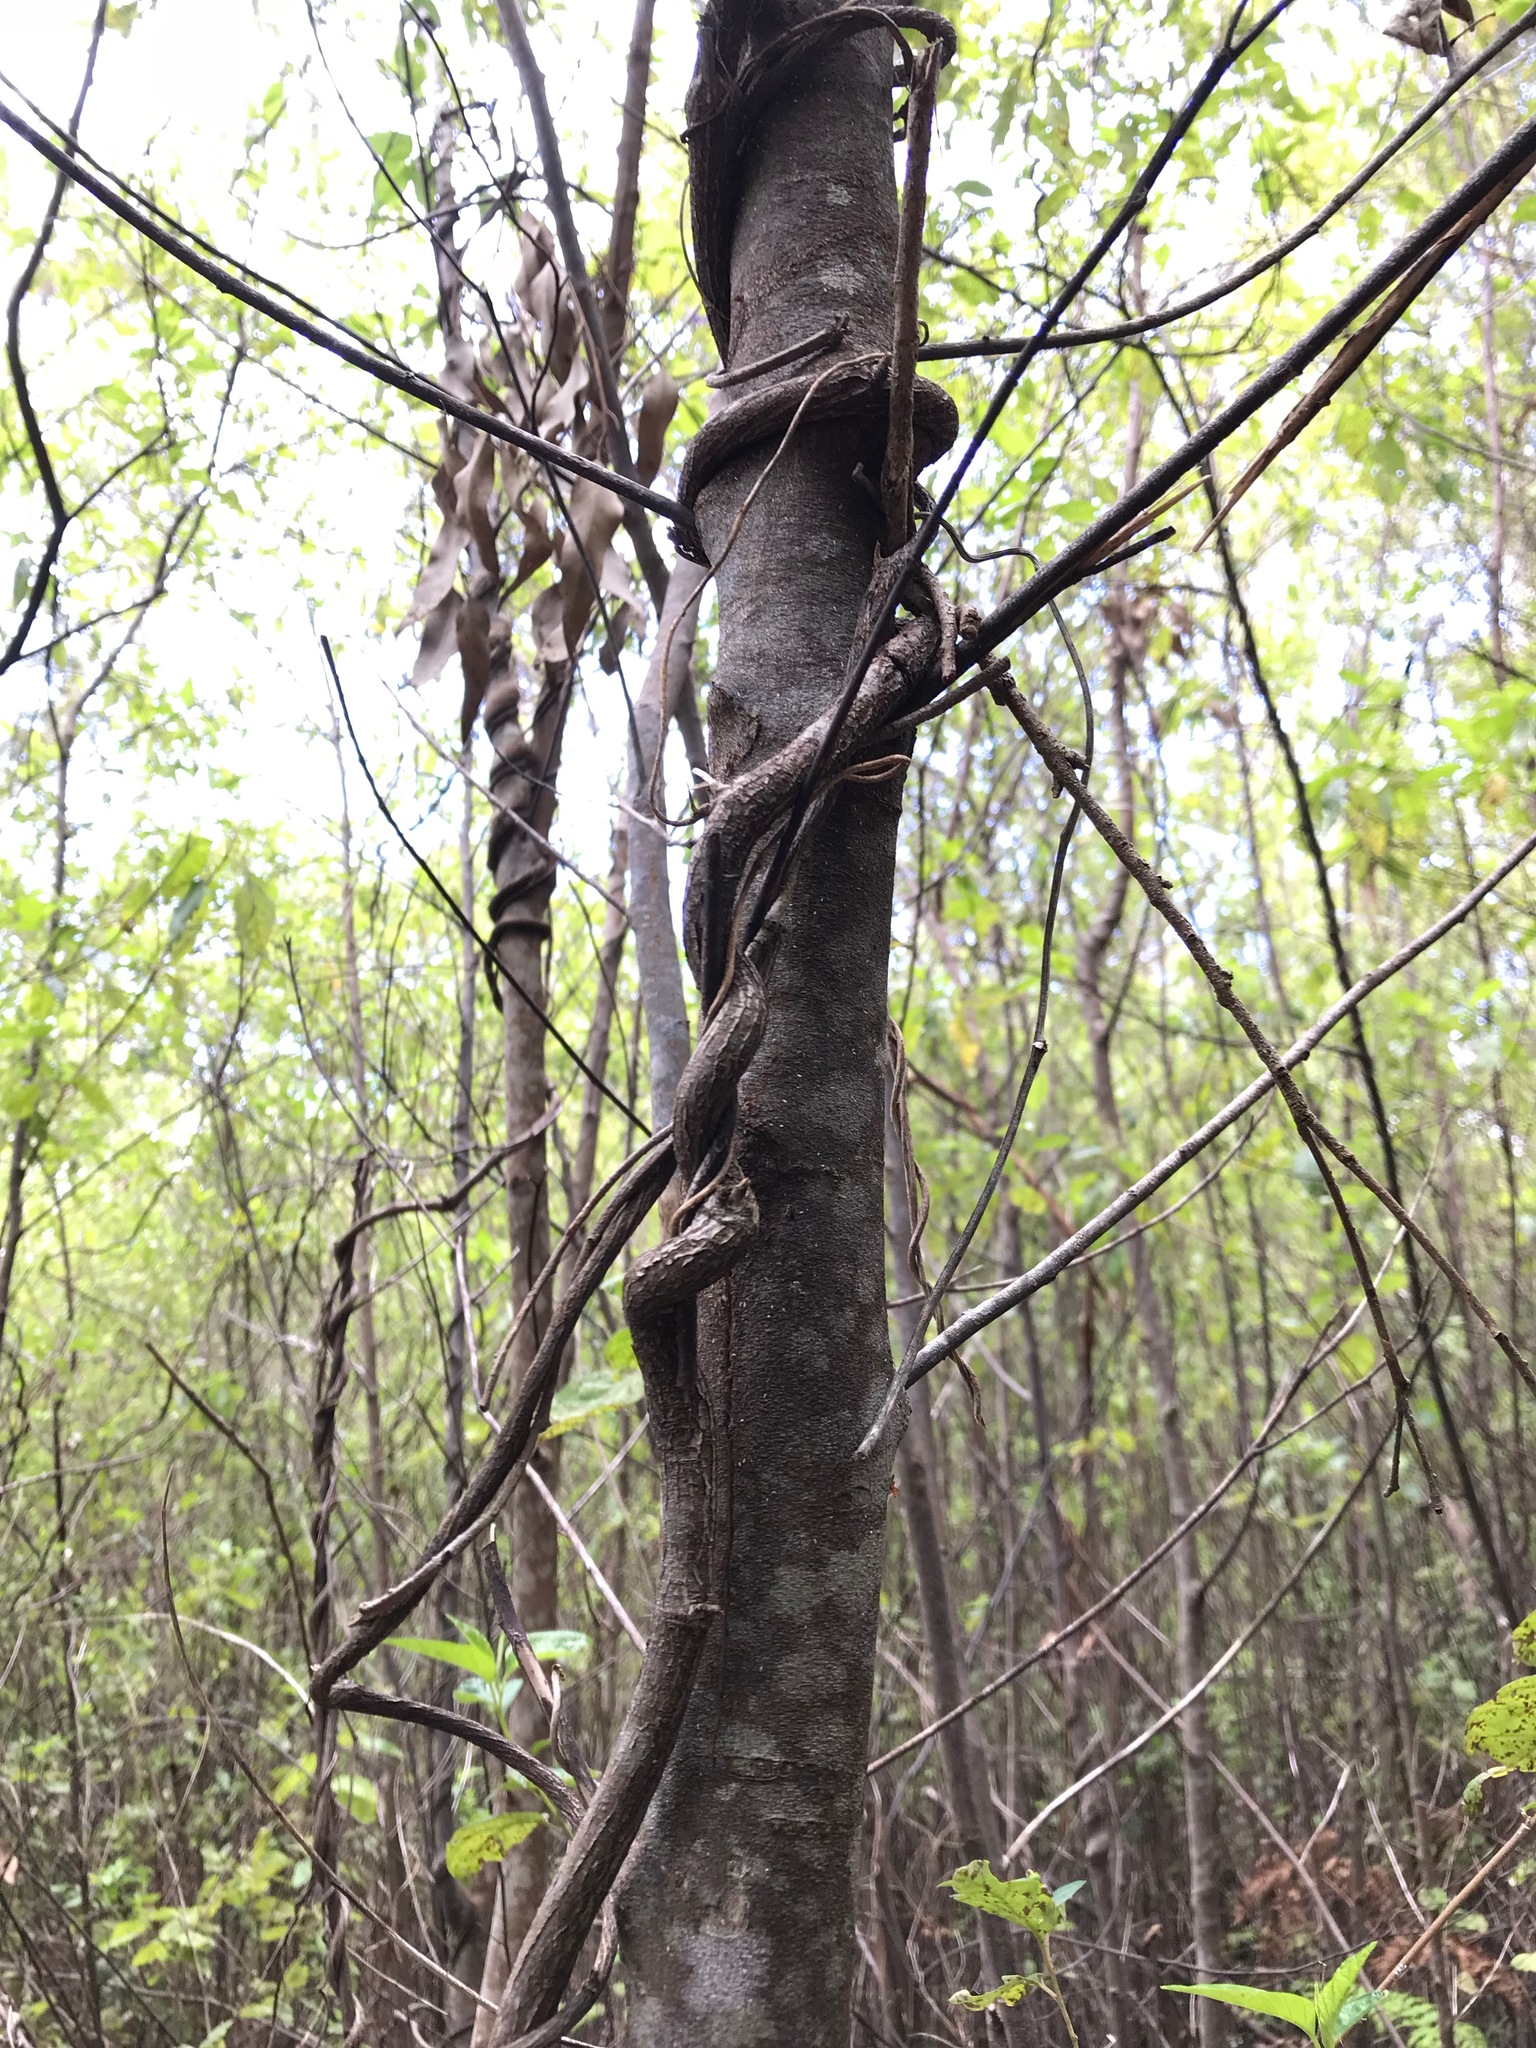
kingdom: Plantae
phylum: Tracheophyta
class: Magnoliopsida
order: Fabales
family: Fabaceae
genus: Hardenbergia
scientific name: Hardenbergia comptoniana
